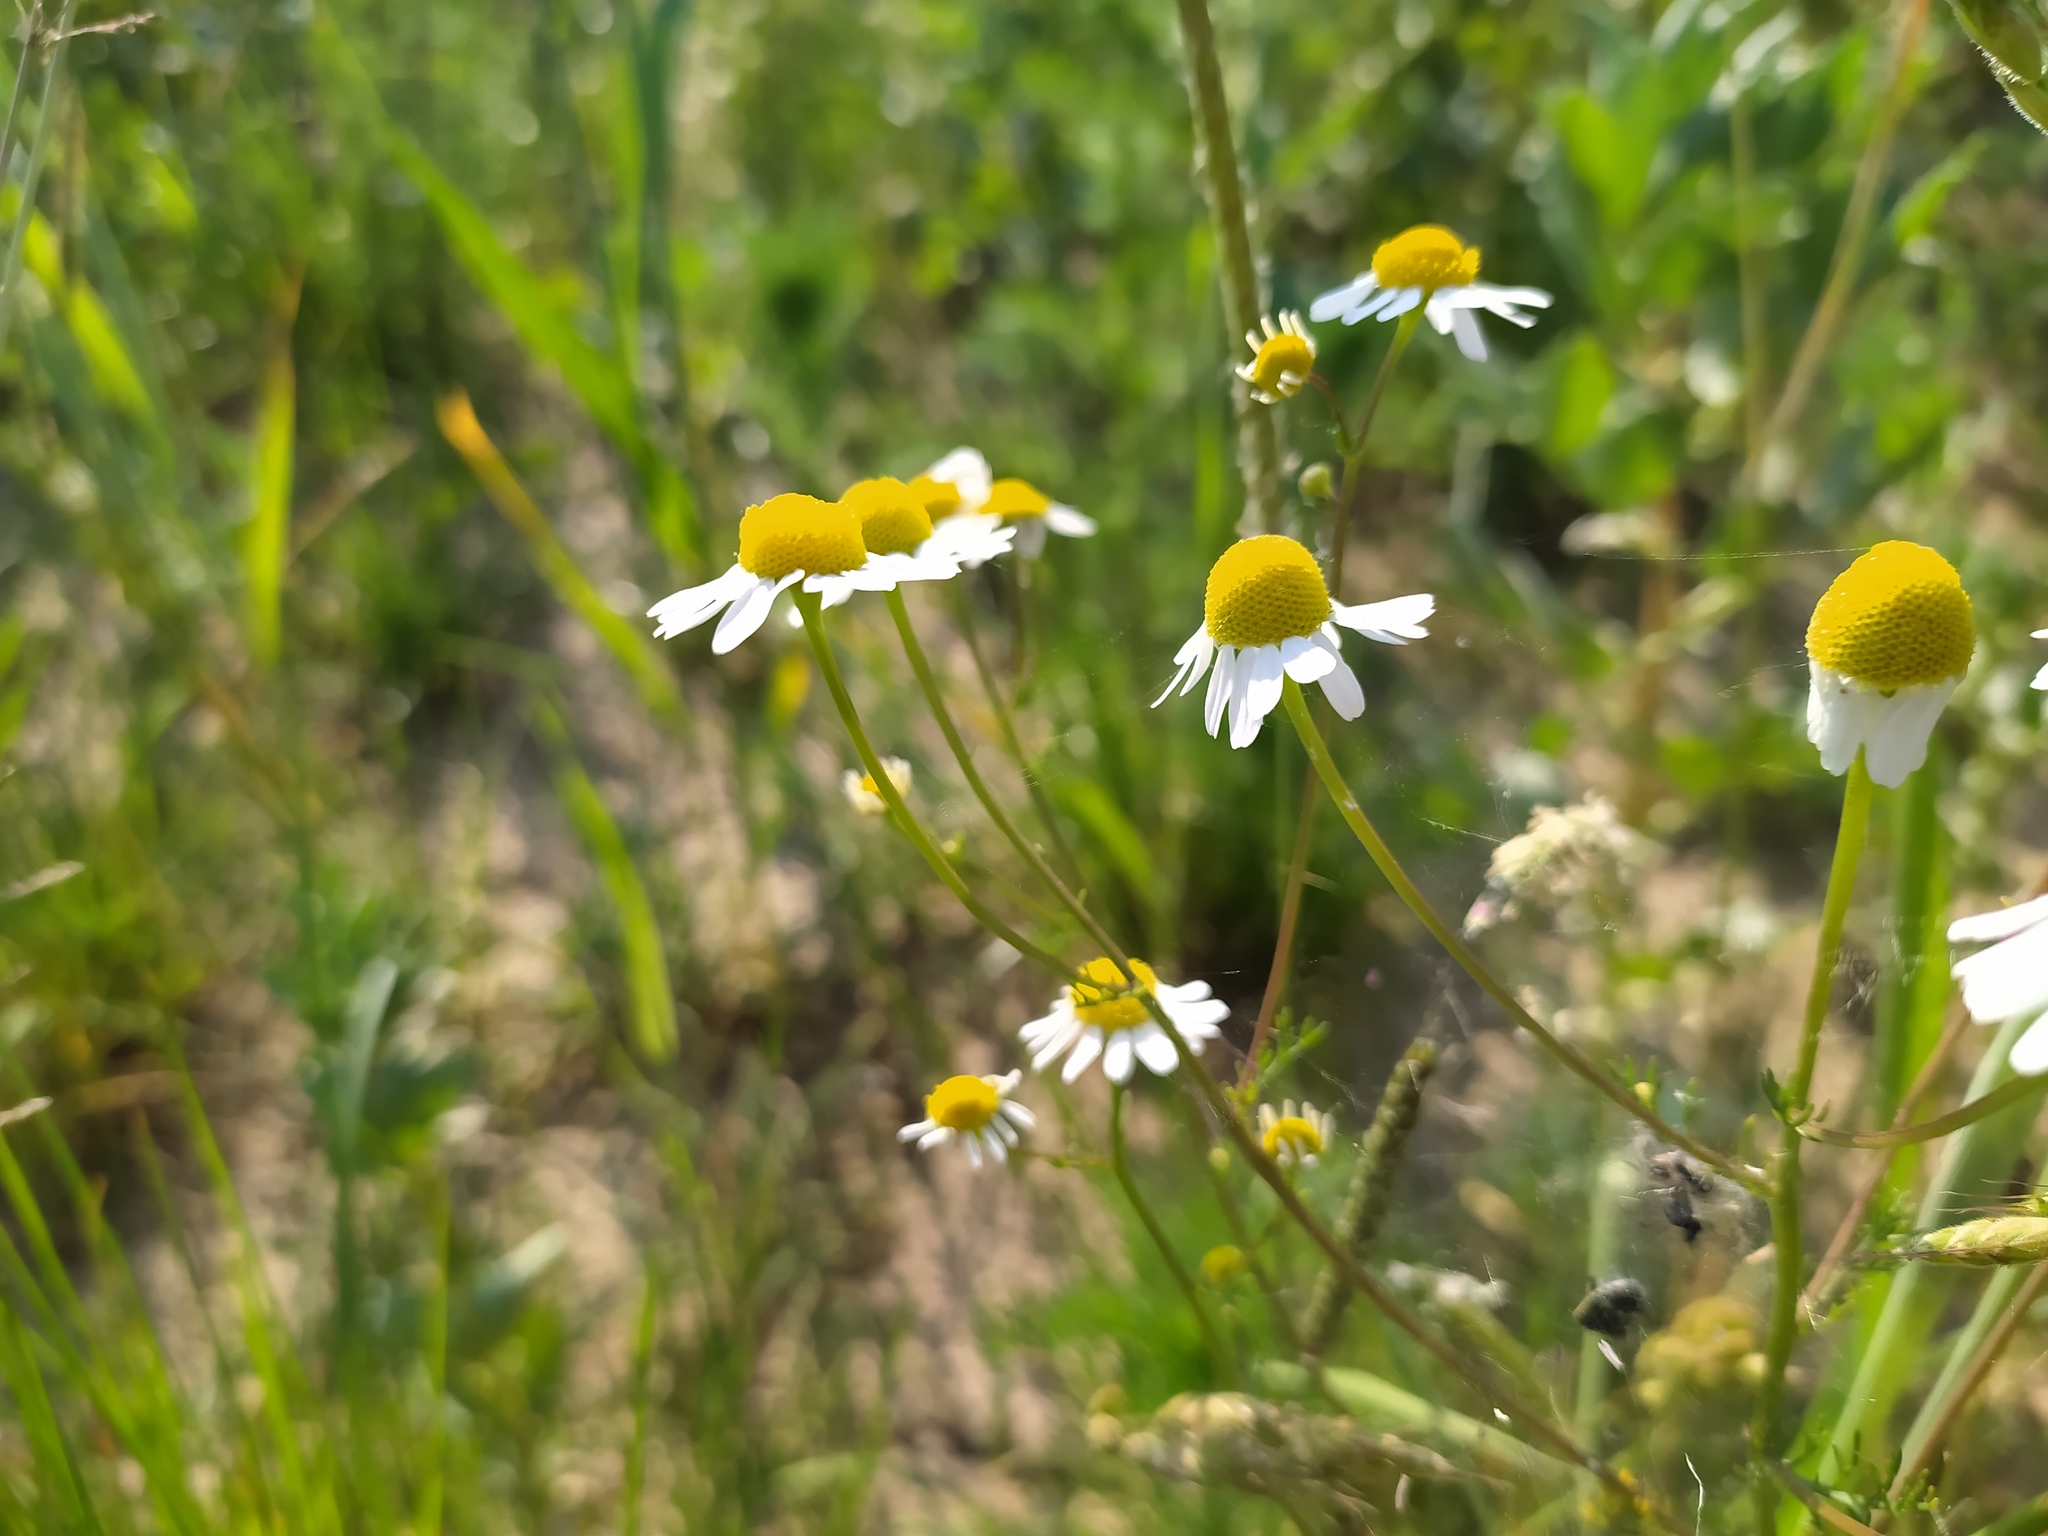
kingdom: Plantae
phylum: Tracheophyta
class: Magnoliopsida
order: Asterales
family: Asteraceae
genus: Matricaria
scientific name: Matricaria chamomilla
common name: Scented mayweed
